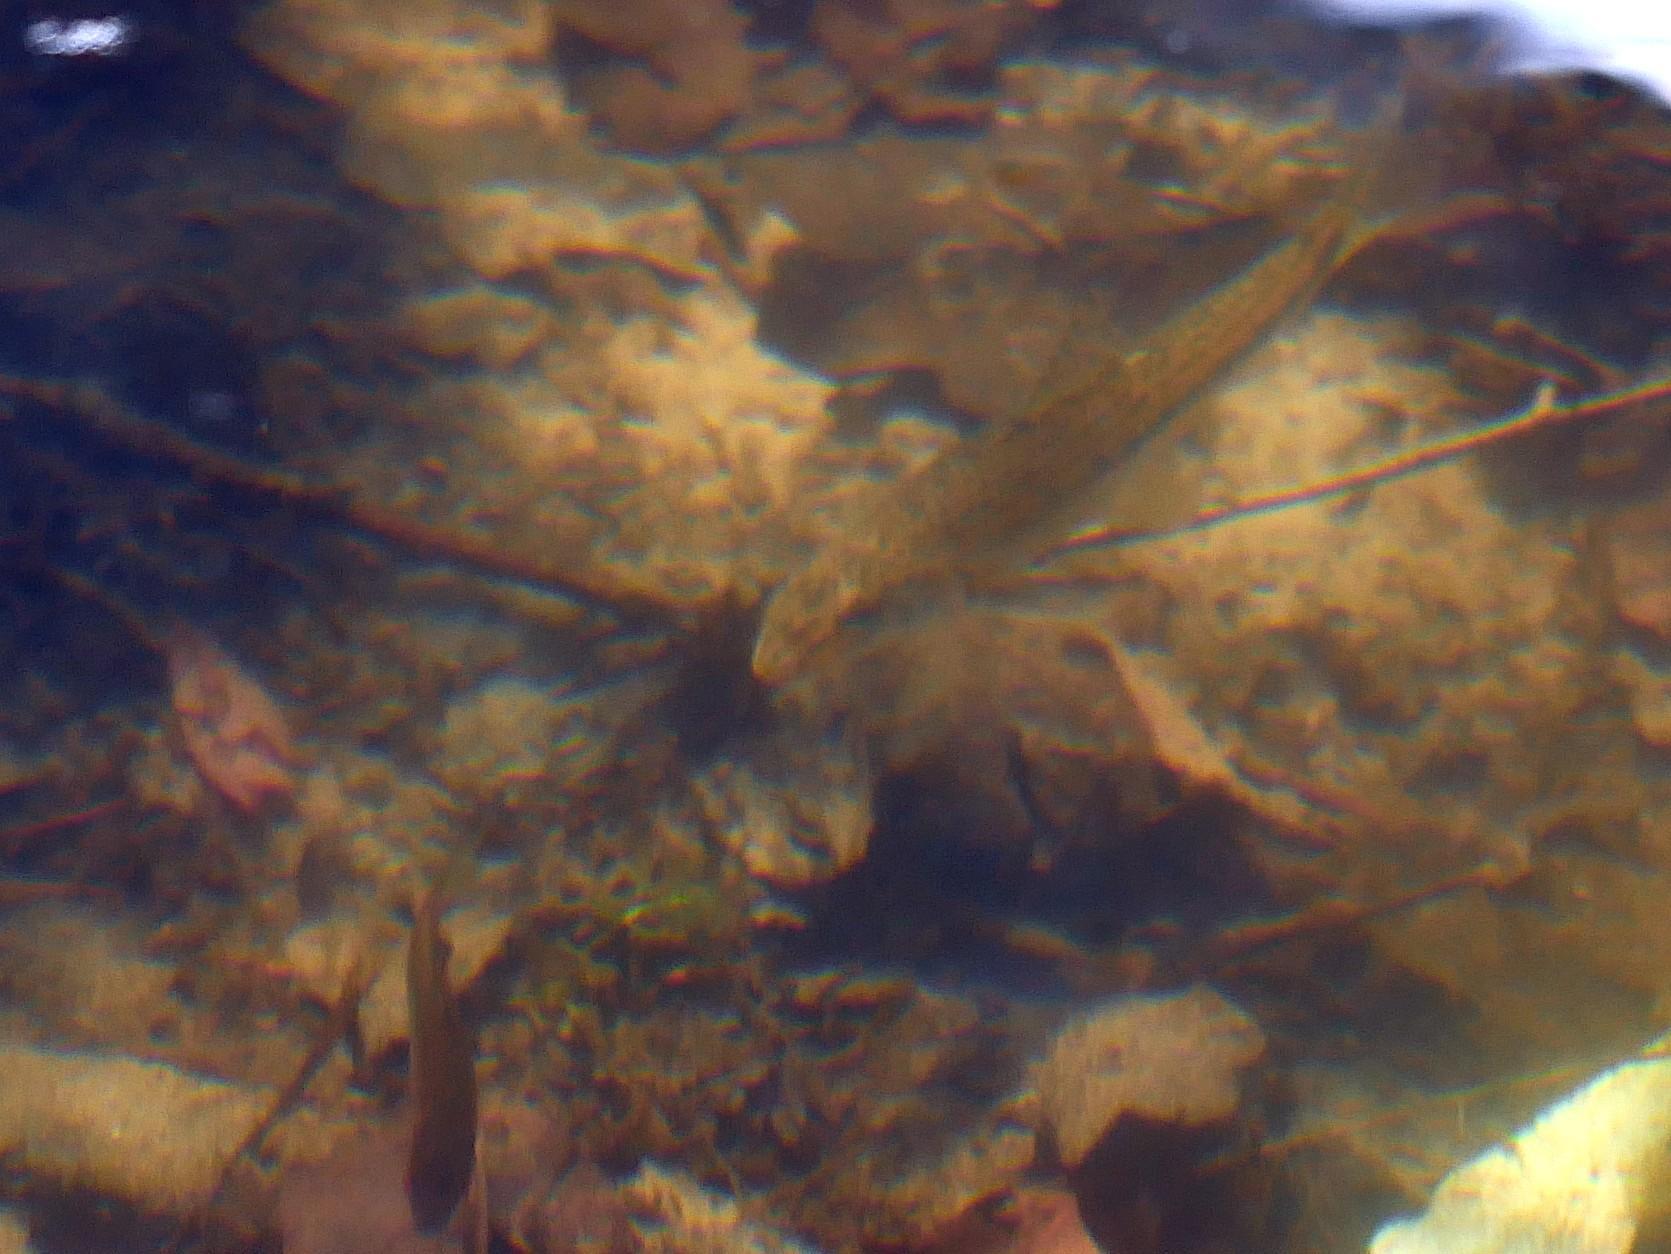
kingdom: Animalia
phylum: Chordata
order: Cypriniformes
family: Cyprinidae
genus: Gobio
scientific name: Gobio gobio
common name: Gudgeon
